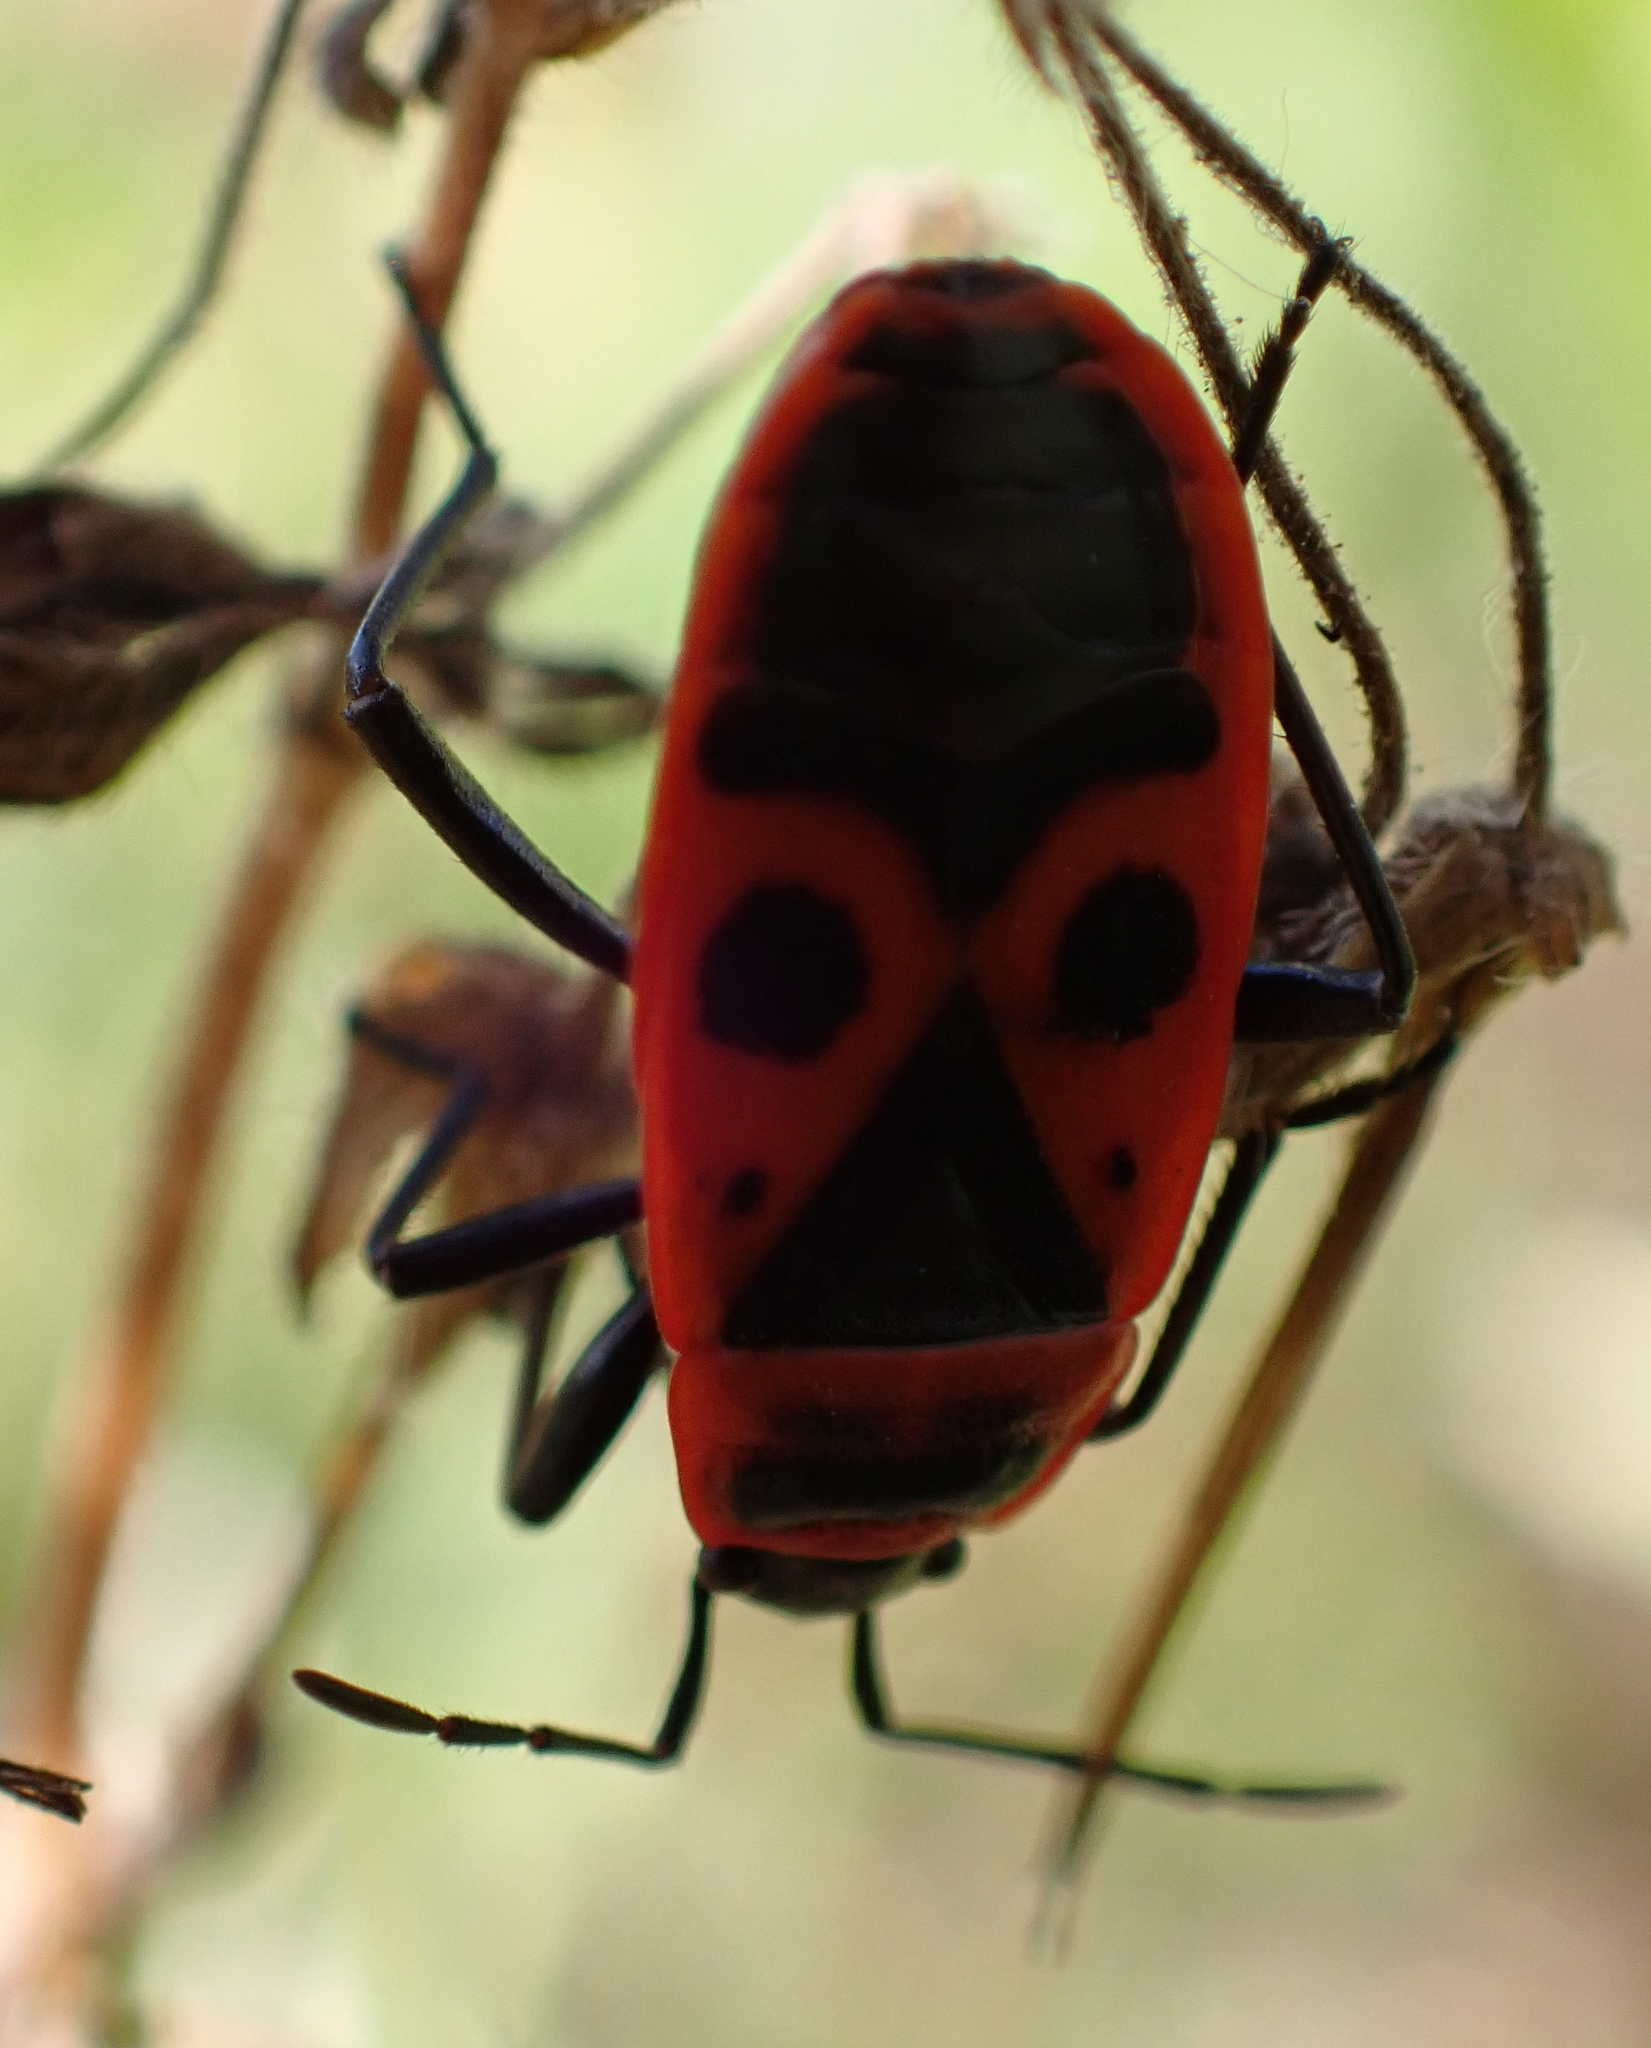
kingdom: Animalia
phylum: Arthropoda
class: Insecta
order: Hemiptera
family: Pyrrhocoridae
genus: Pyrrhocoris
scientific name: Pyrrhocoris apterus
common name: Firebug
